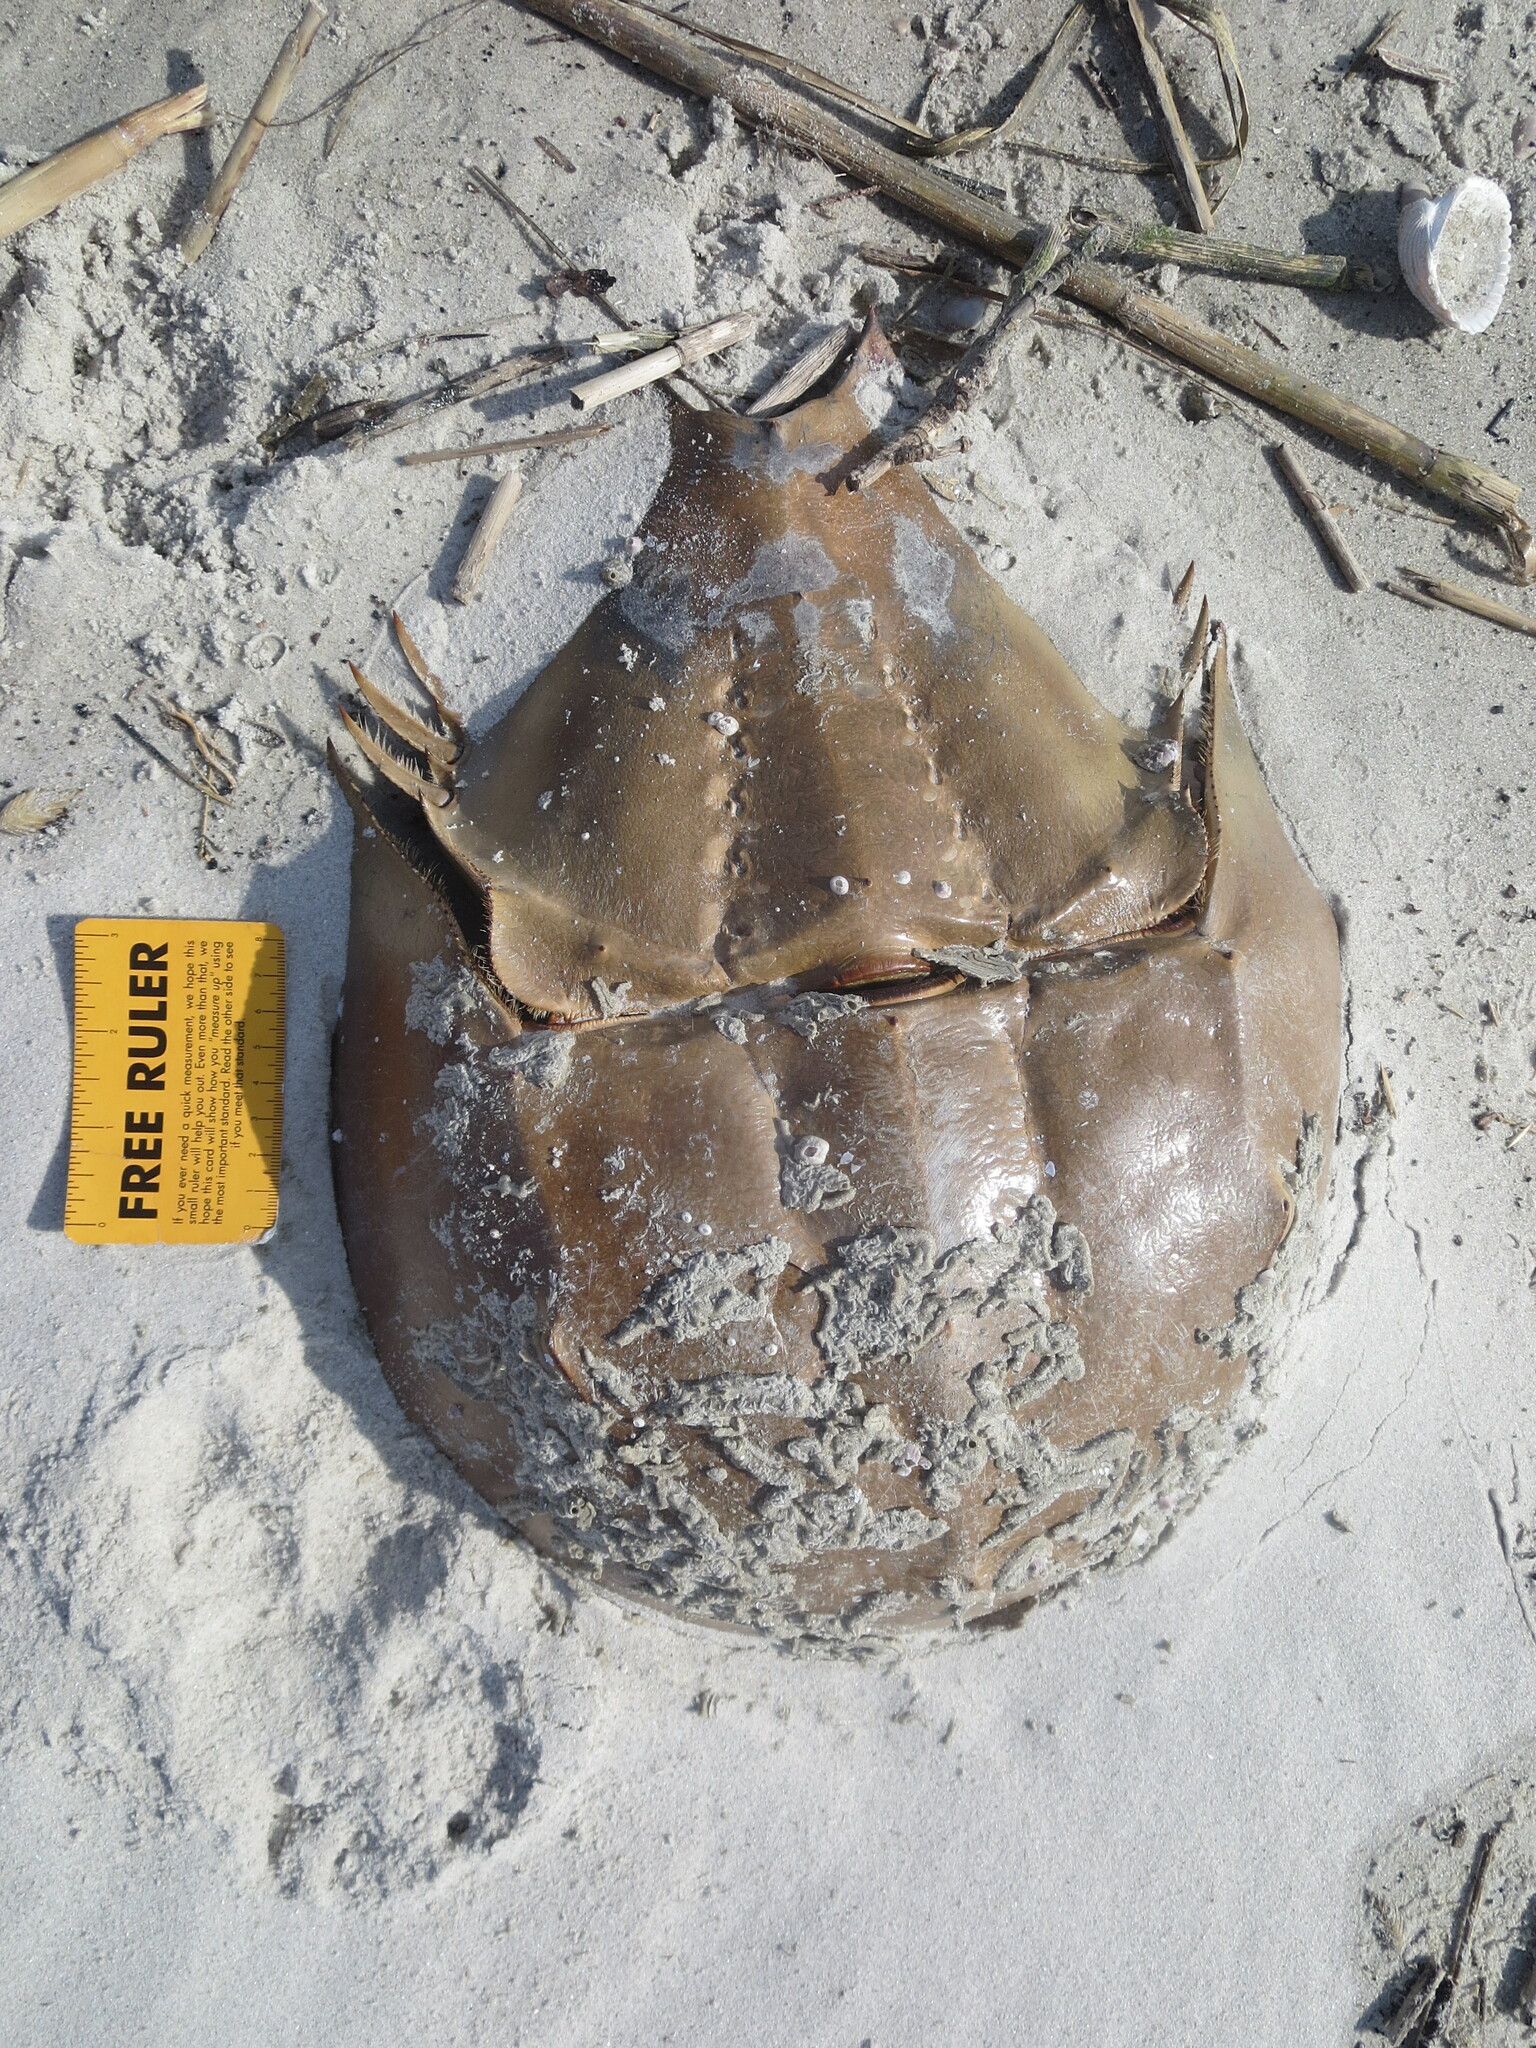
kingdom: Animalia
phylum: Arthropoda
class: Merostomata
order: Xiphosurida
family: Limulidae
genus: Limulus
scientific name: Limulus polyphemus
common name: Horseshoe crab
